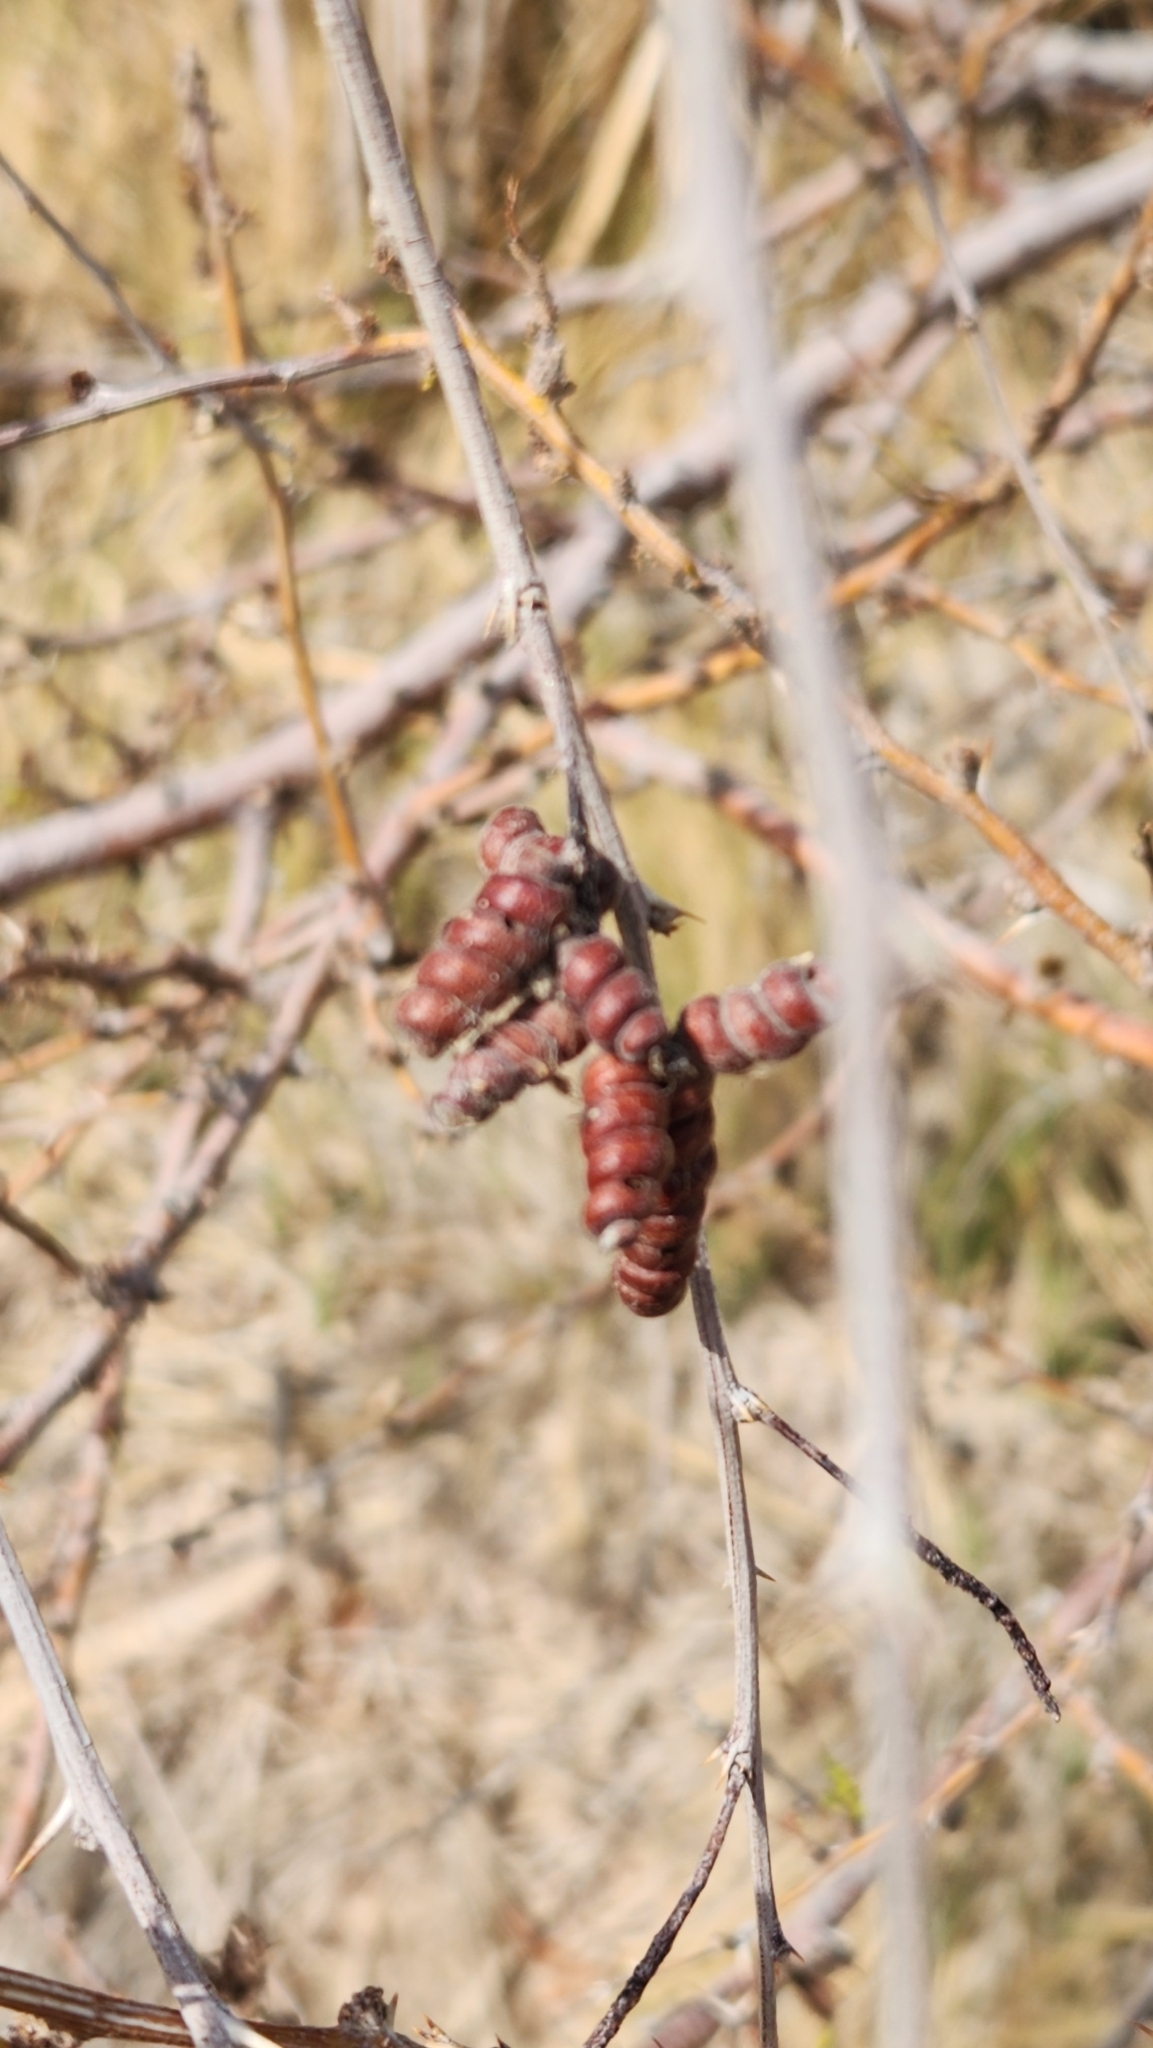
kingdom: Plantae
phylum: Tracheophyta
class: Magnoliopsida
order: Fabales
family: Fabaceae
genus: Prosopis
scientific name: Prosopis pubescens
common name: Screw-bean
